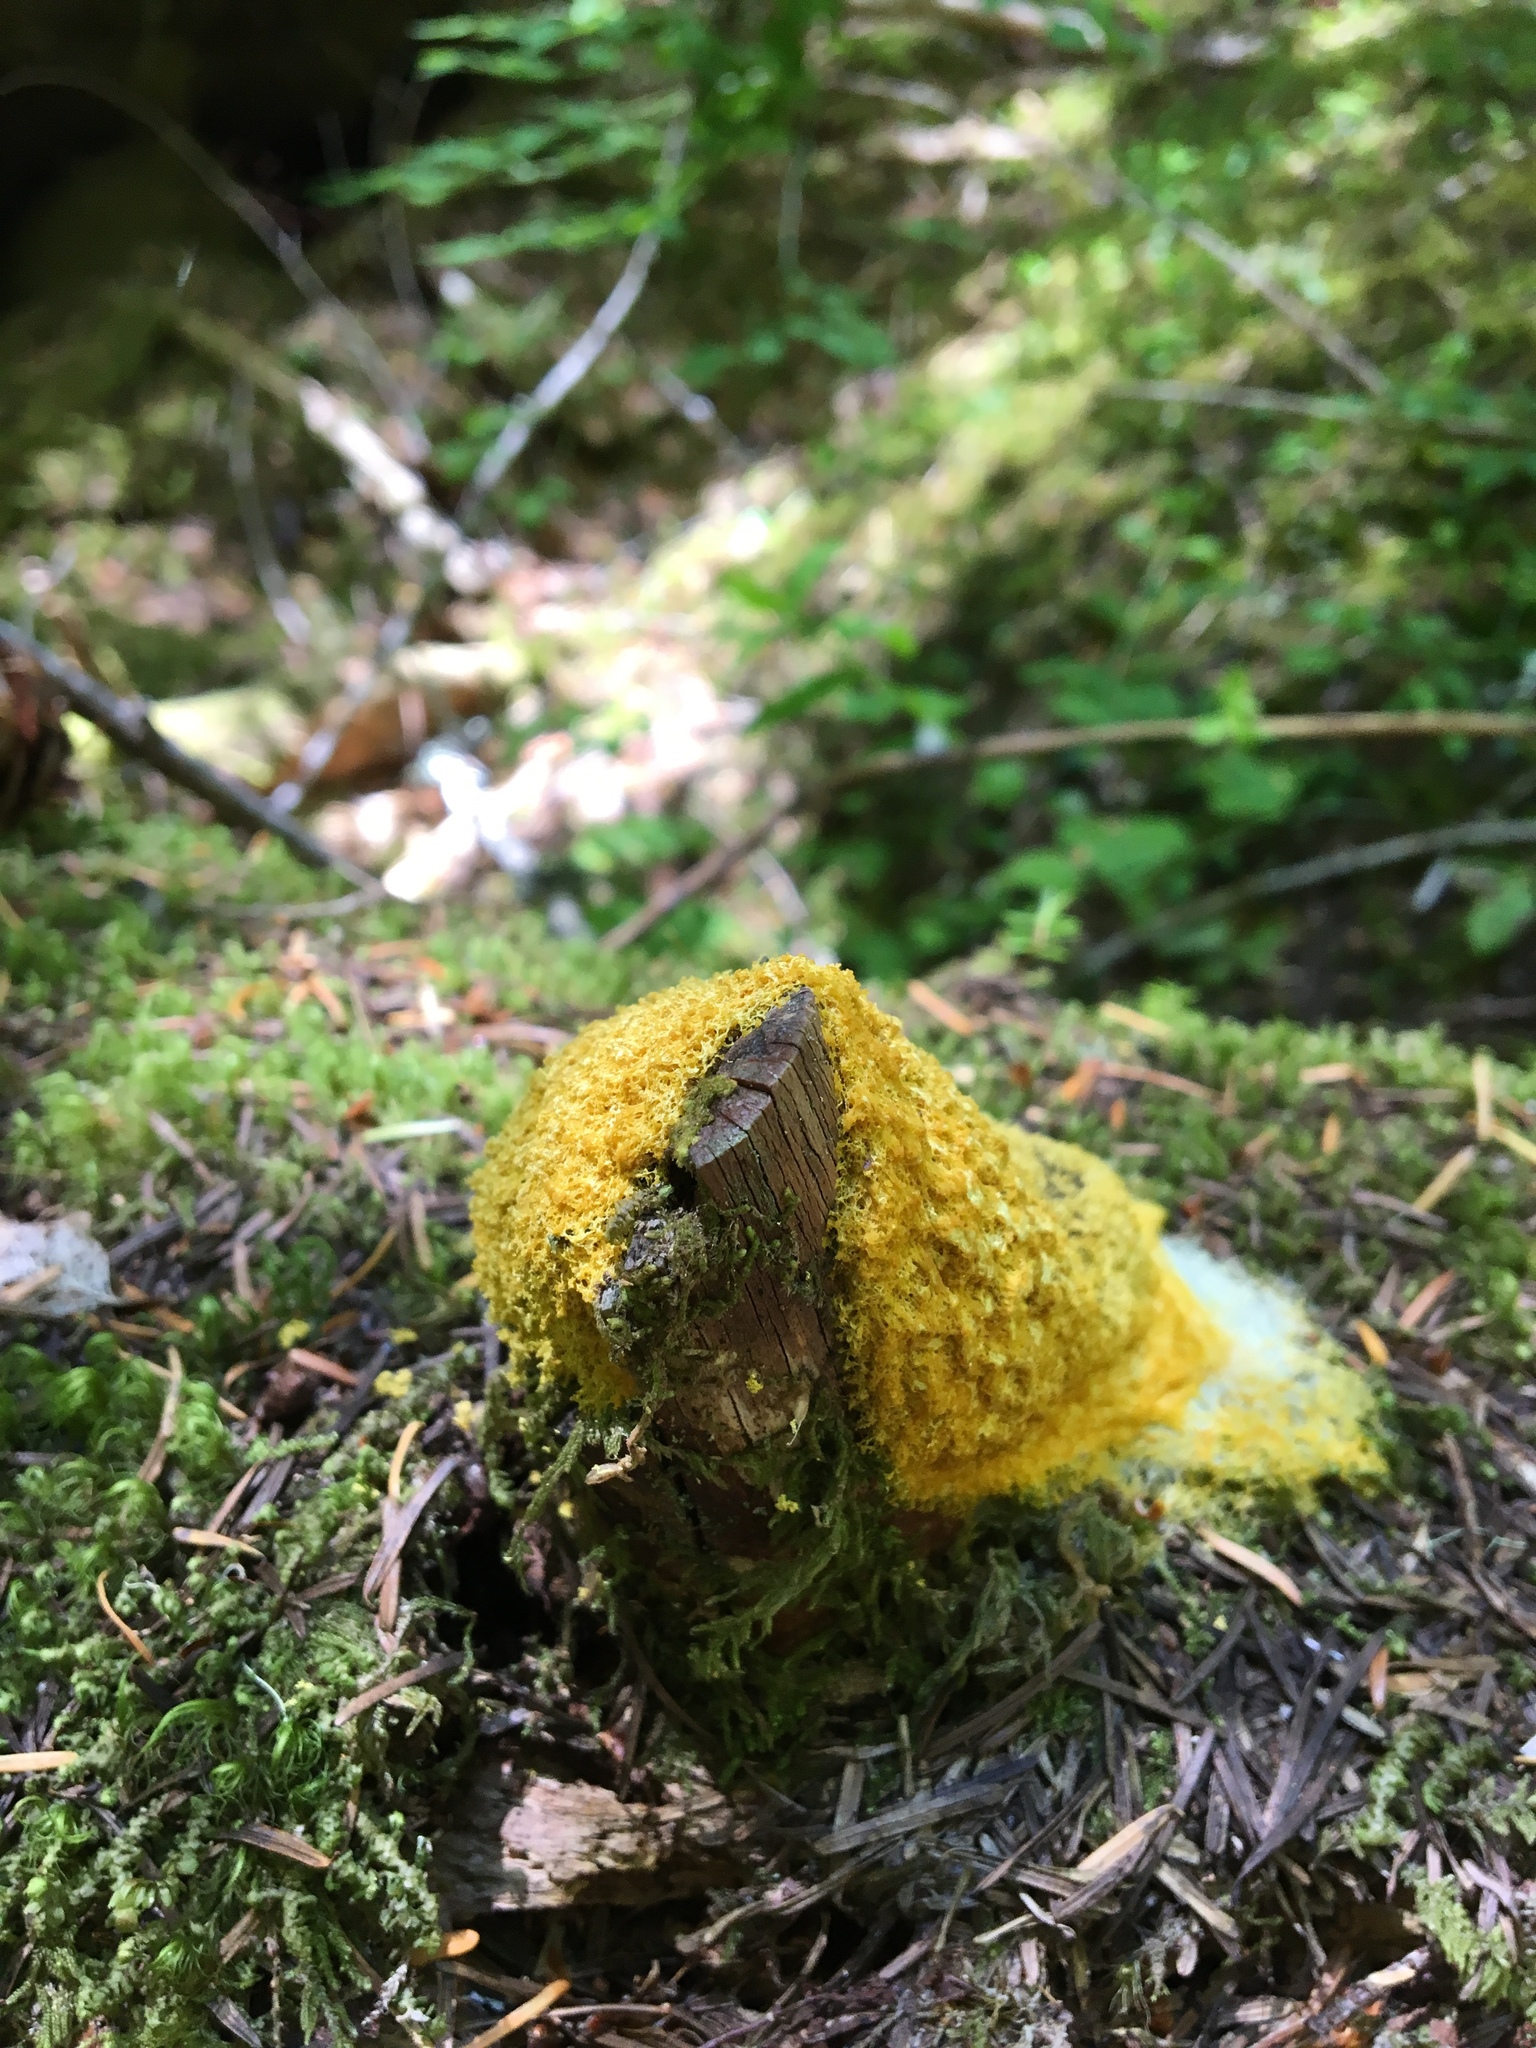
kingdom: Protozoa
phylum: Mycetozoa
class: Myxomycetes
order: Physarales
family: Physaraceae
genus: Fuligo
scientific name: Fuligo septica
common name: Dog vomit slime mold
